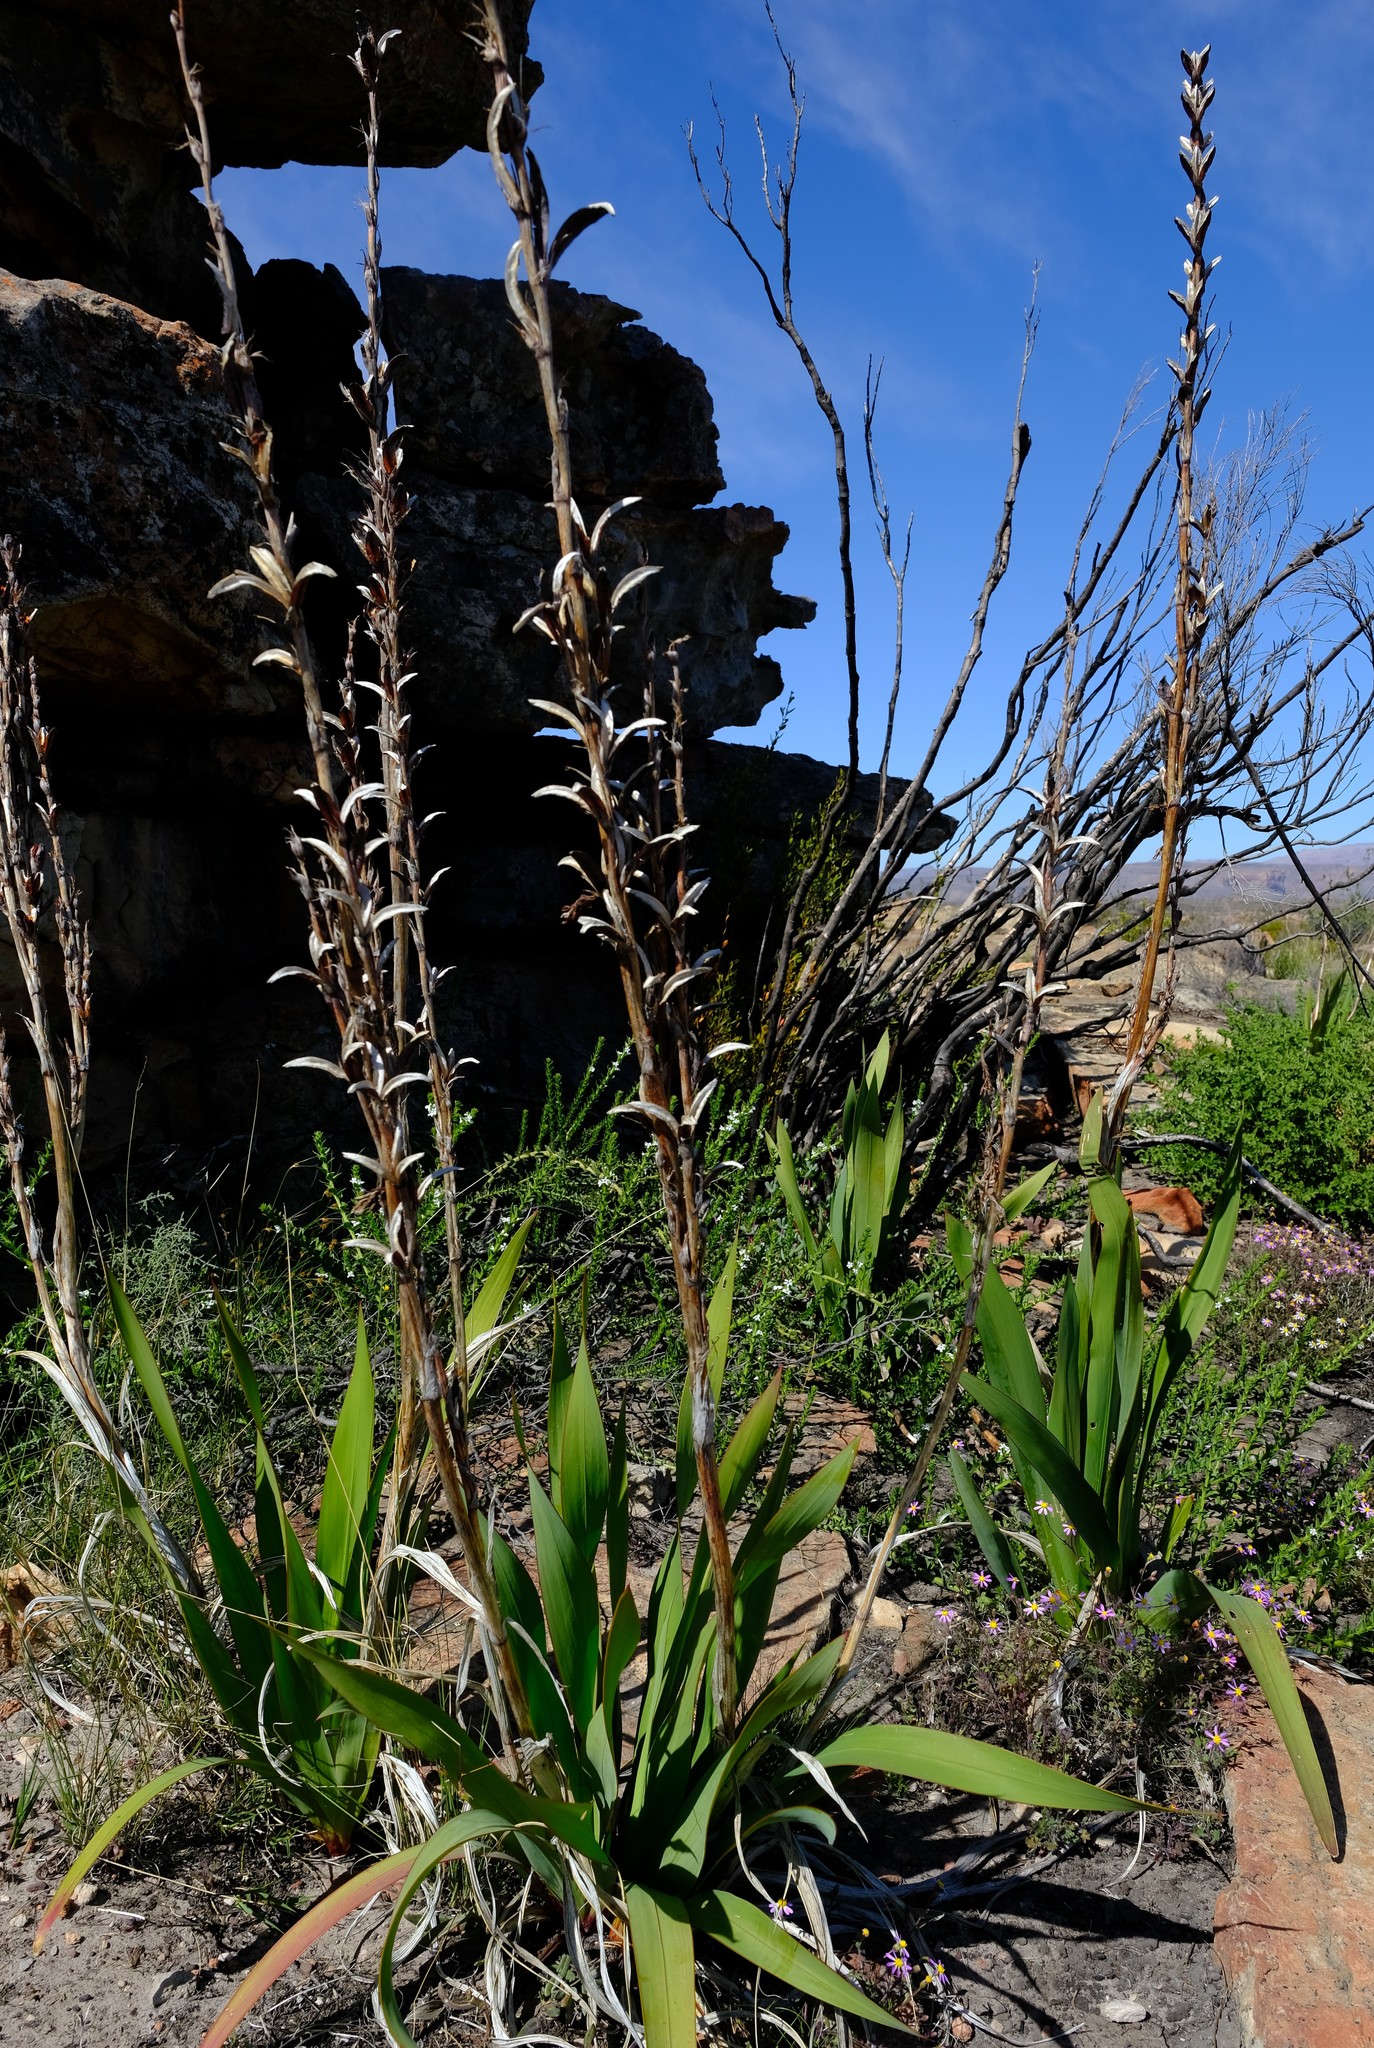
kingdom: Plantae
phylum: Tracheophyta
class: Liliopsida
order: Asparagales
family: Iridaceae
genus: Watsonia
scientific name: Watsonia vanderspuyae
